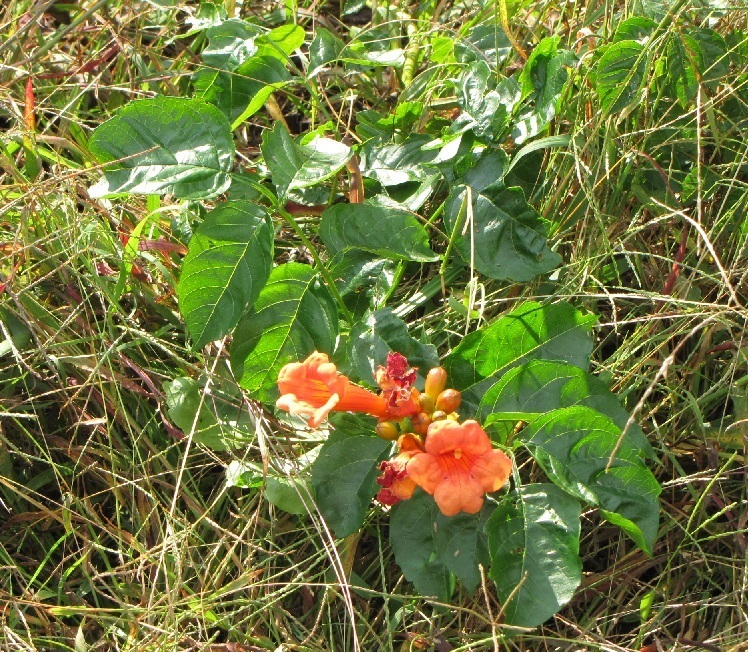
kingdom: Plantae
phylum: Tracheophyta
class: Magnoliopsida
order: Lamiales
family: Bignoniaceae
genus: Campsis
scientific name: Campsis radicans
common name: Trumpet-creeper
